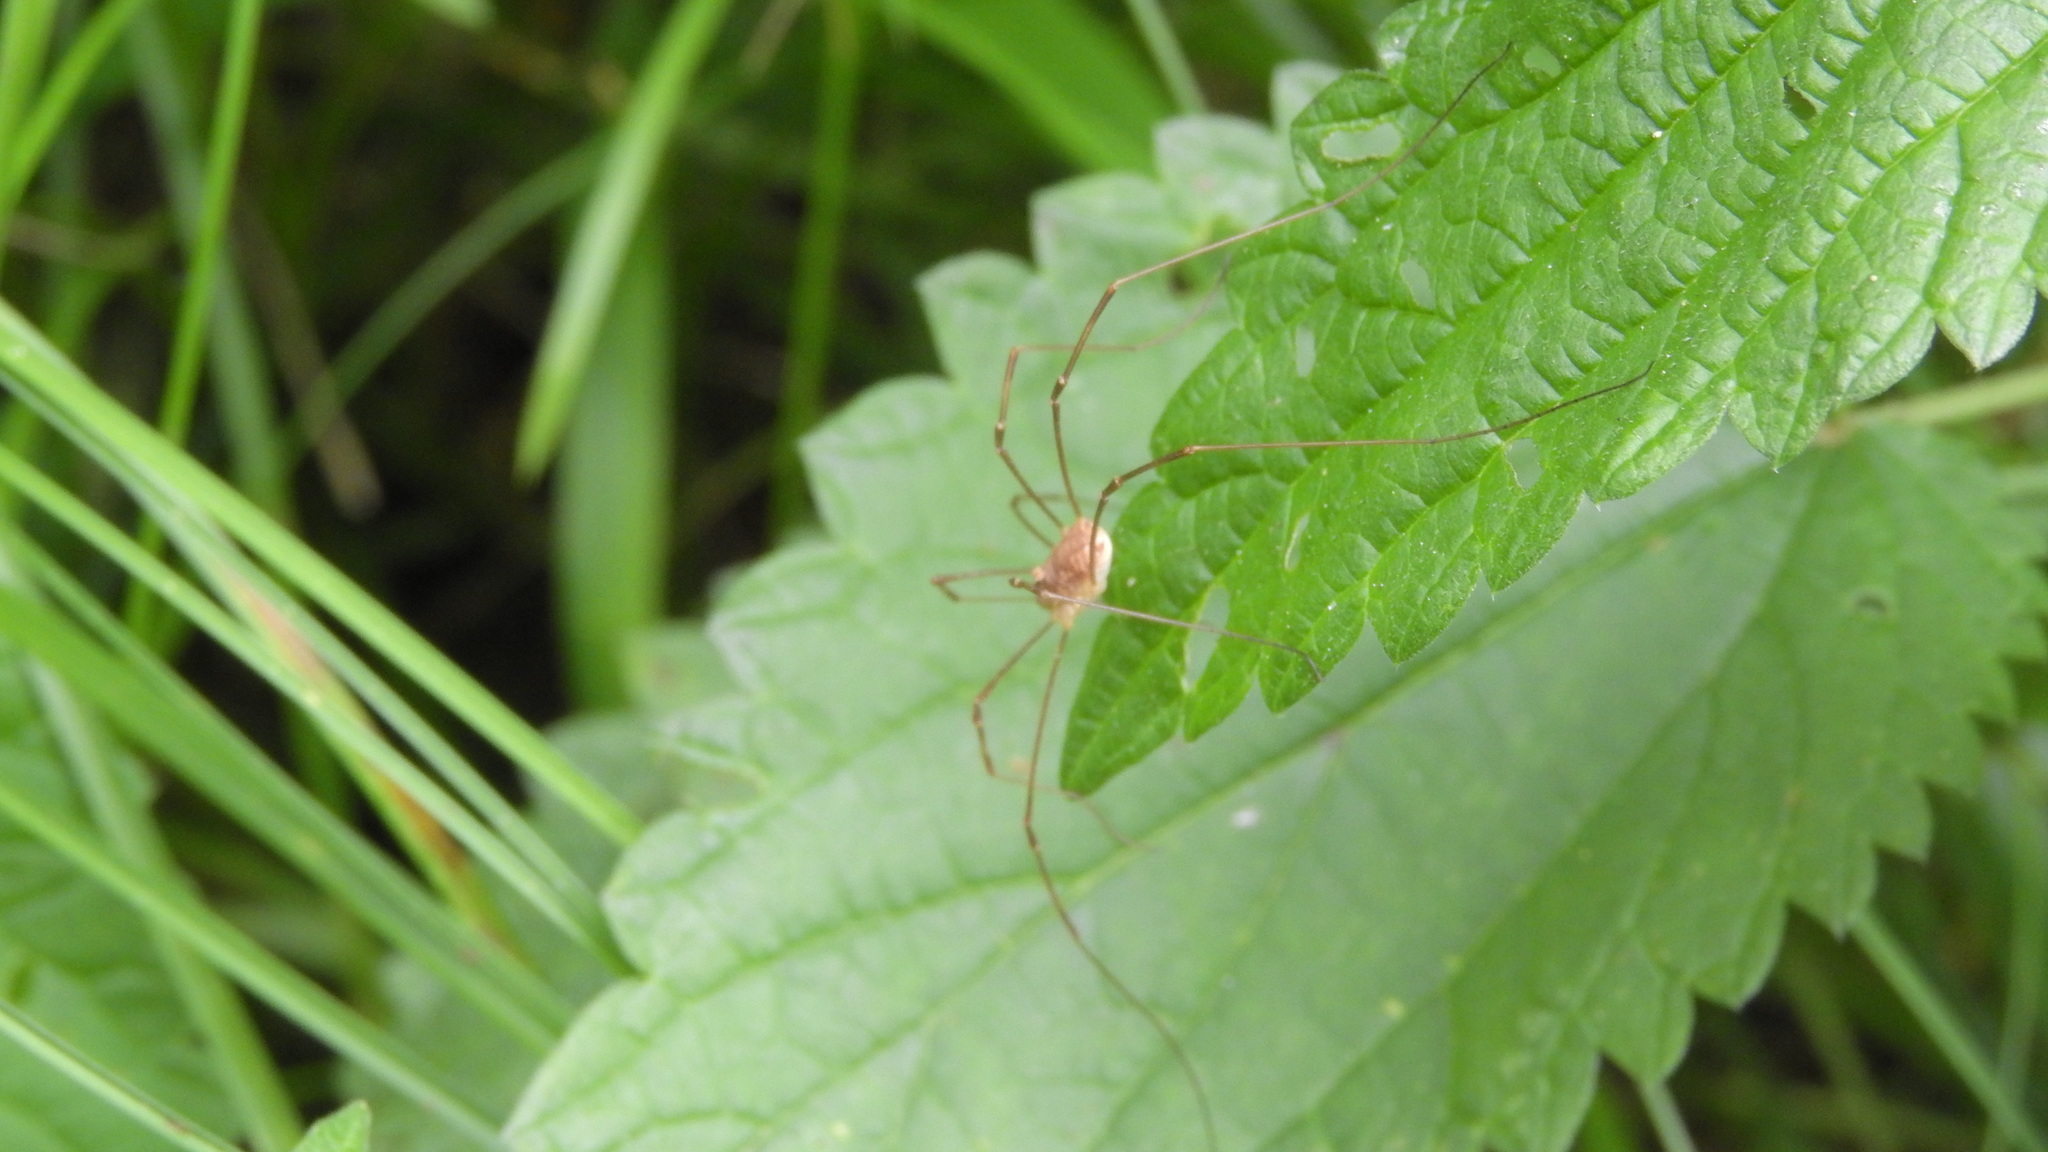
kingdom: Animalia
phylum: Arthropoda
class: Arachnida
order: Opiliones
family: Phalangiidae
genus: Rilaena
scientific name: Rilaena triangularis
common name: Spring harvestman
